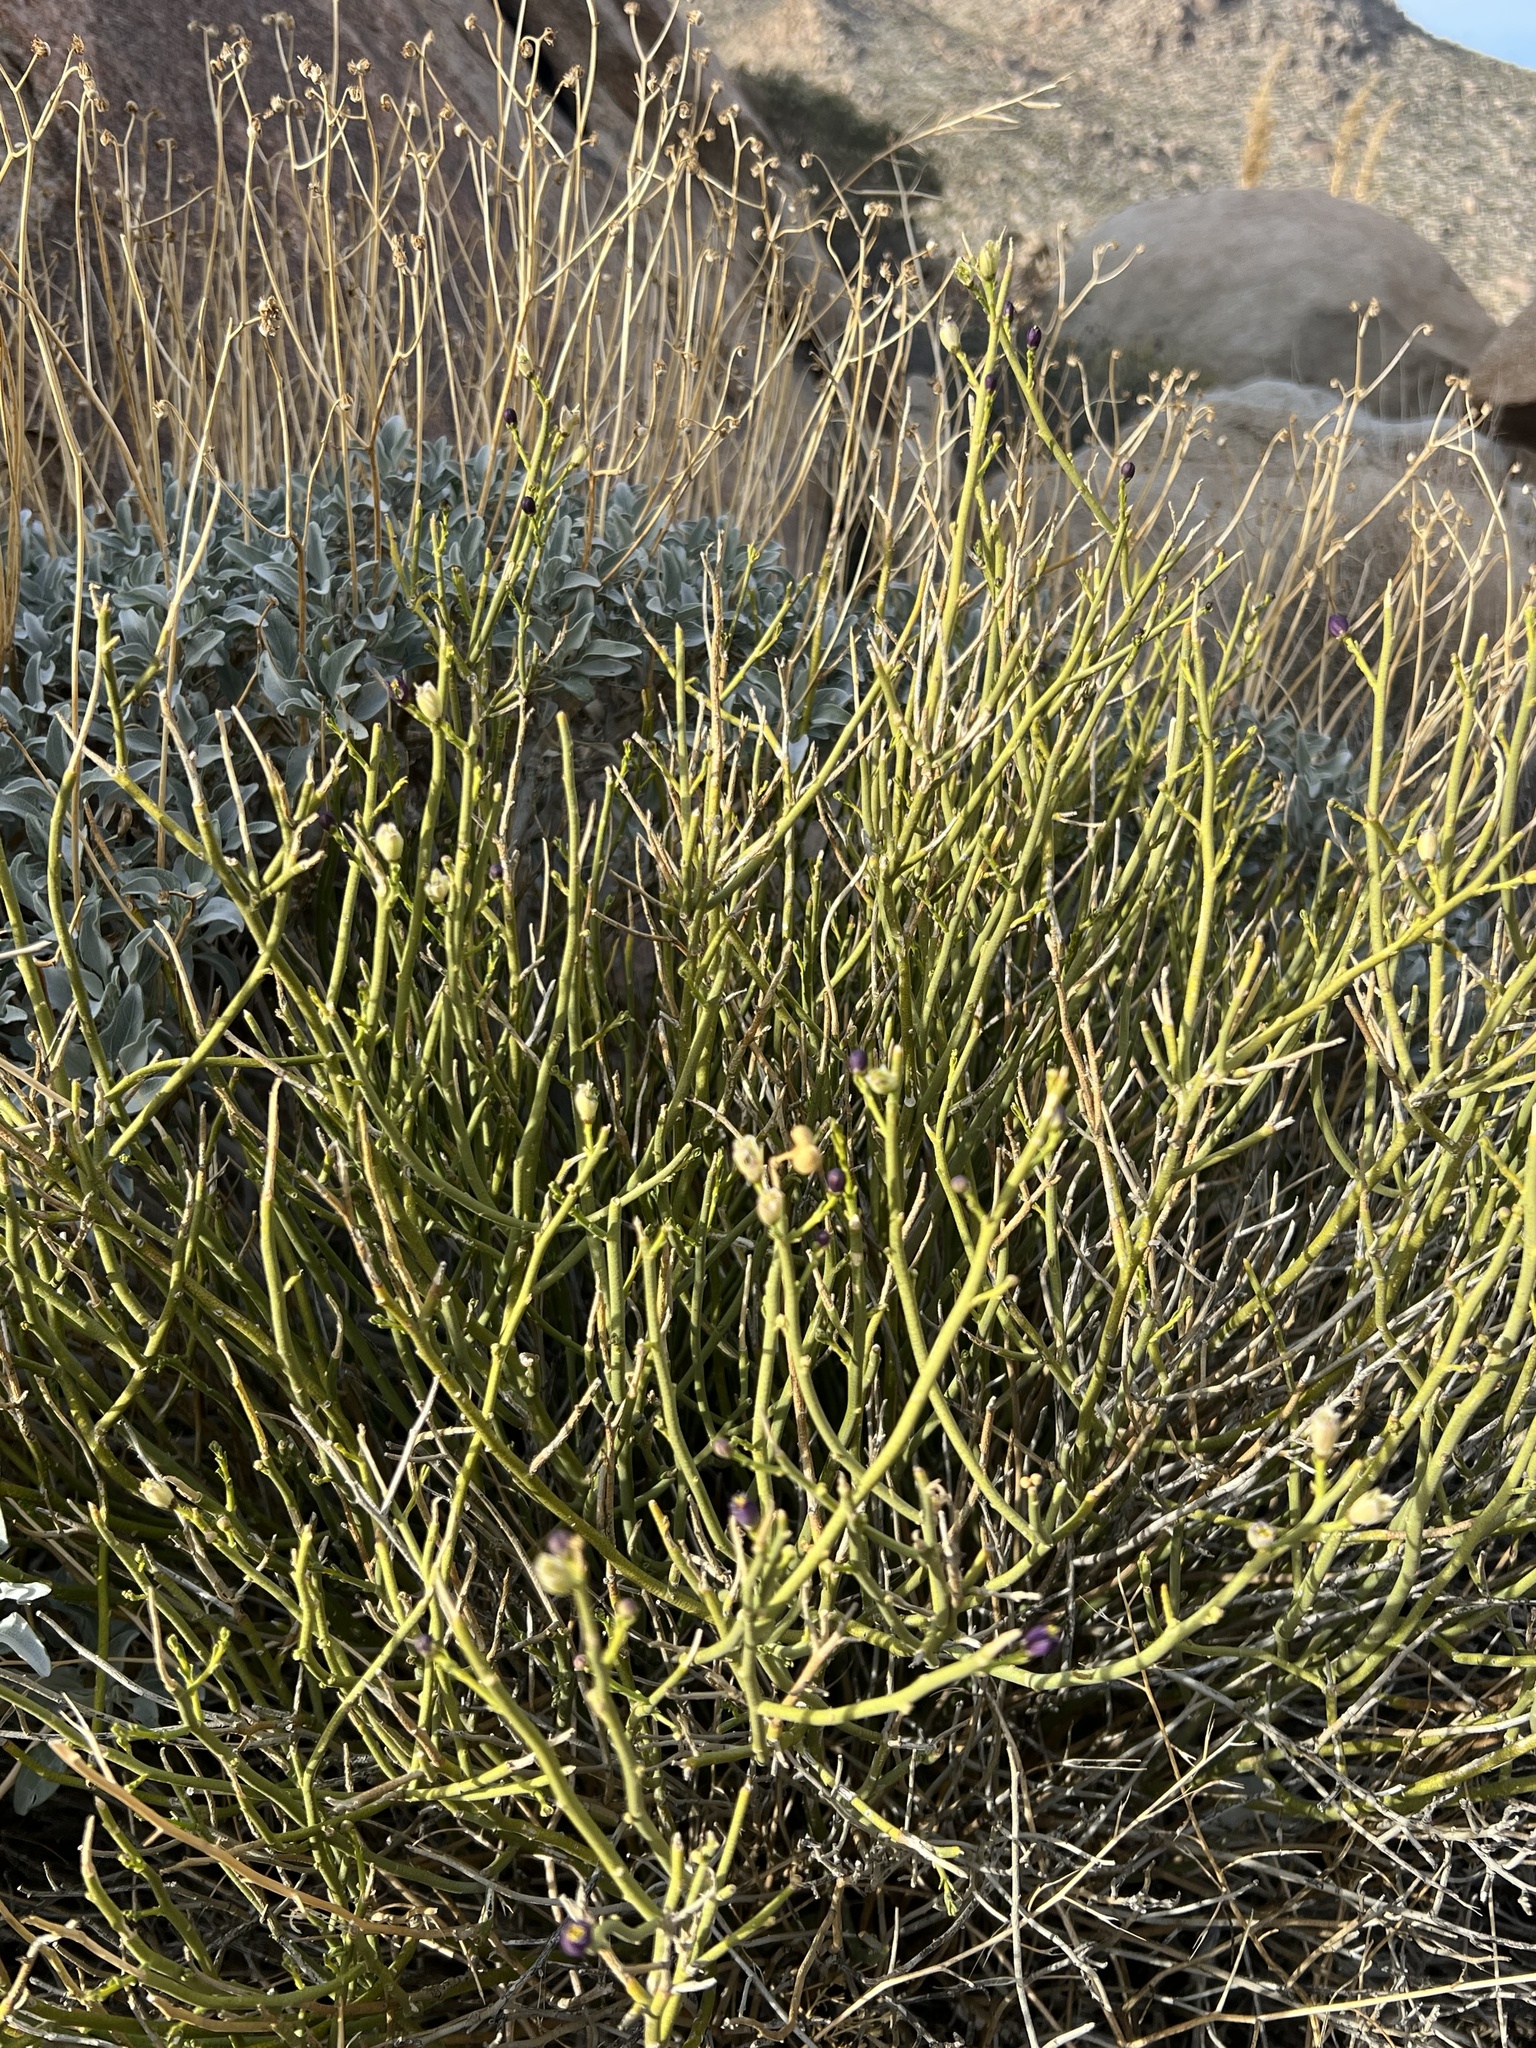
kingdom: Plantae
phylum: Tracheophyta
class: Magnoliopsida
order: Sapindales
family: Rutaceae
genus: Thamnosma
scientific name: Thamnosma montana
